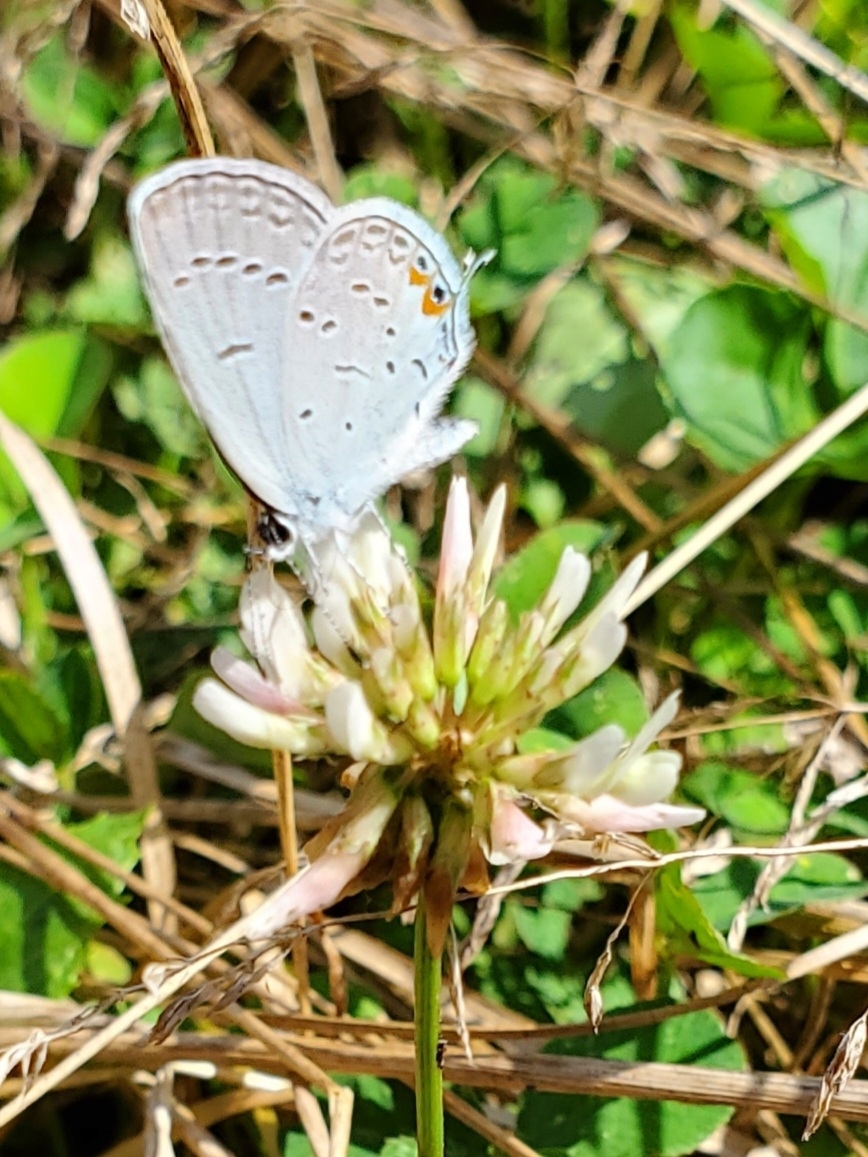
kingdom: Animalia
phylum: Arthropoda
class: Insecta
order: Lepidoptera
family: Lycaenidae
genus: Elkalyce
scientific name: Elkalyce comyntas
